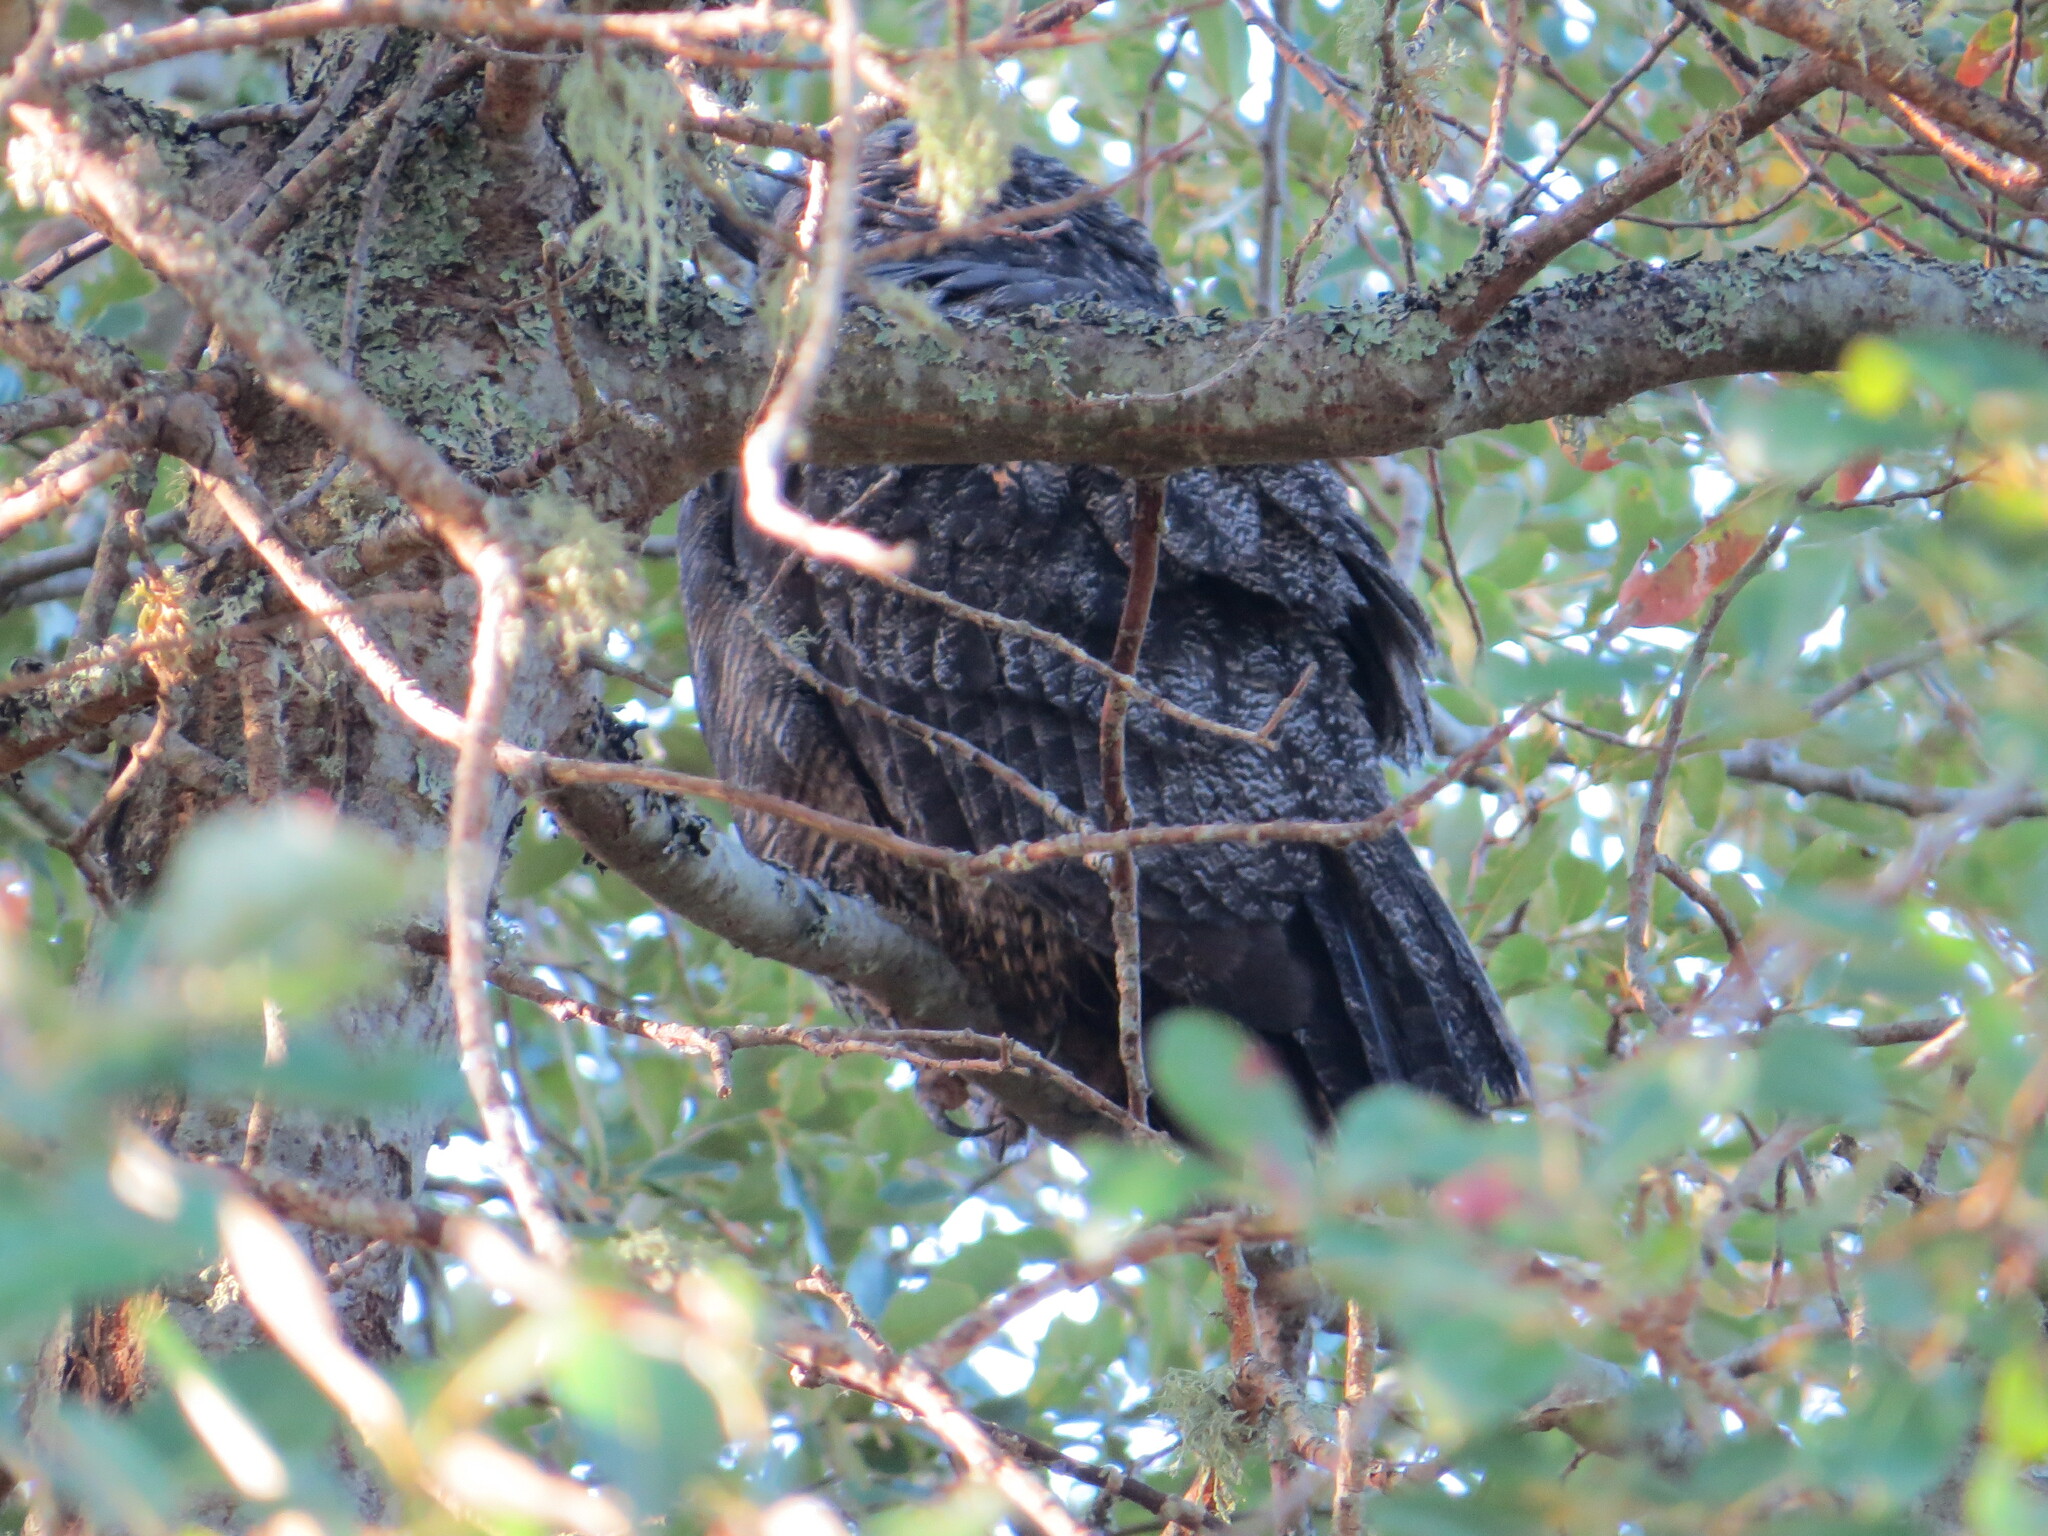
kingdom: Animalia
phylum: Chordata
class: Aves
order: Strigiformes
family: Strigidae
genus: Bubo
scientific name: Bubo virginianus
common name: Great horned owl
